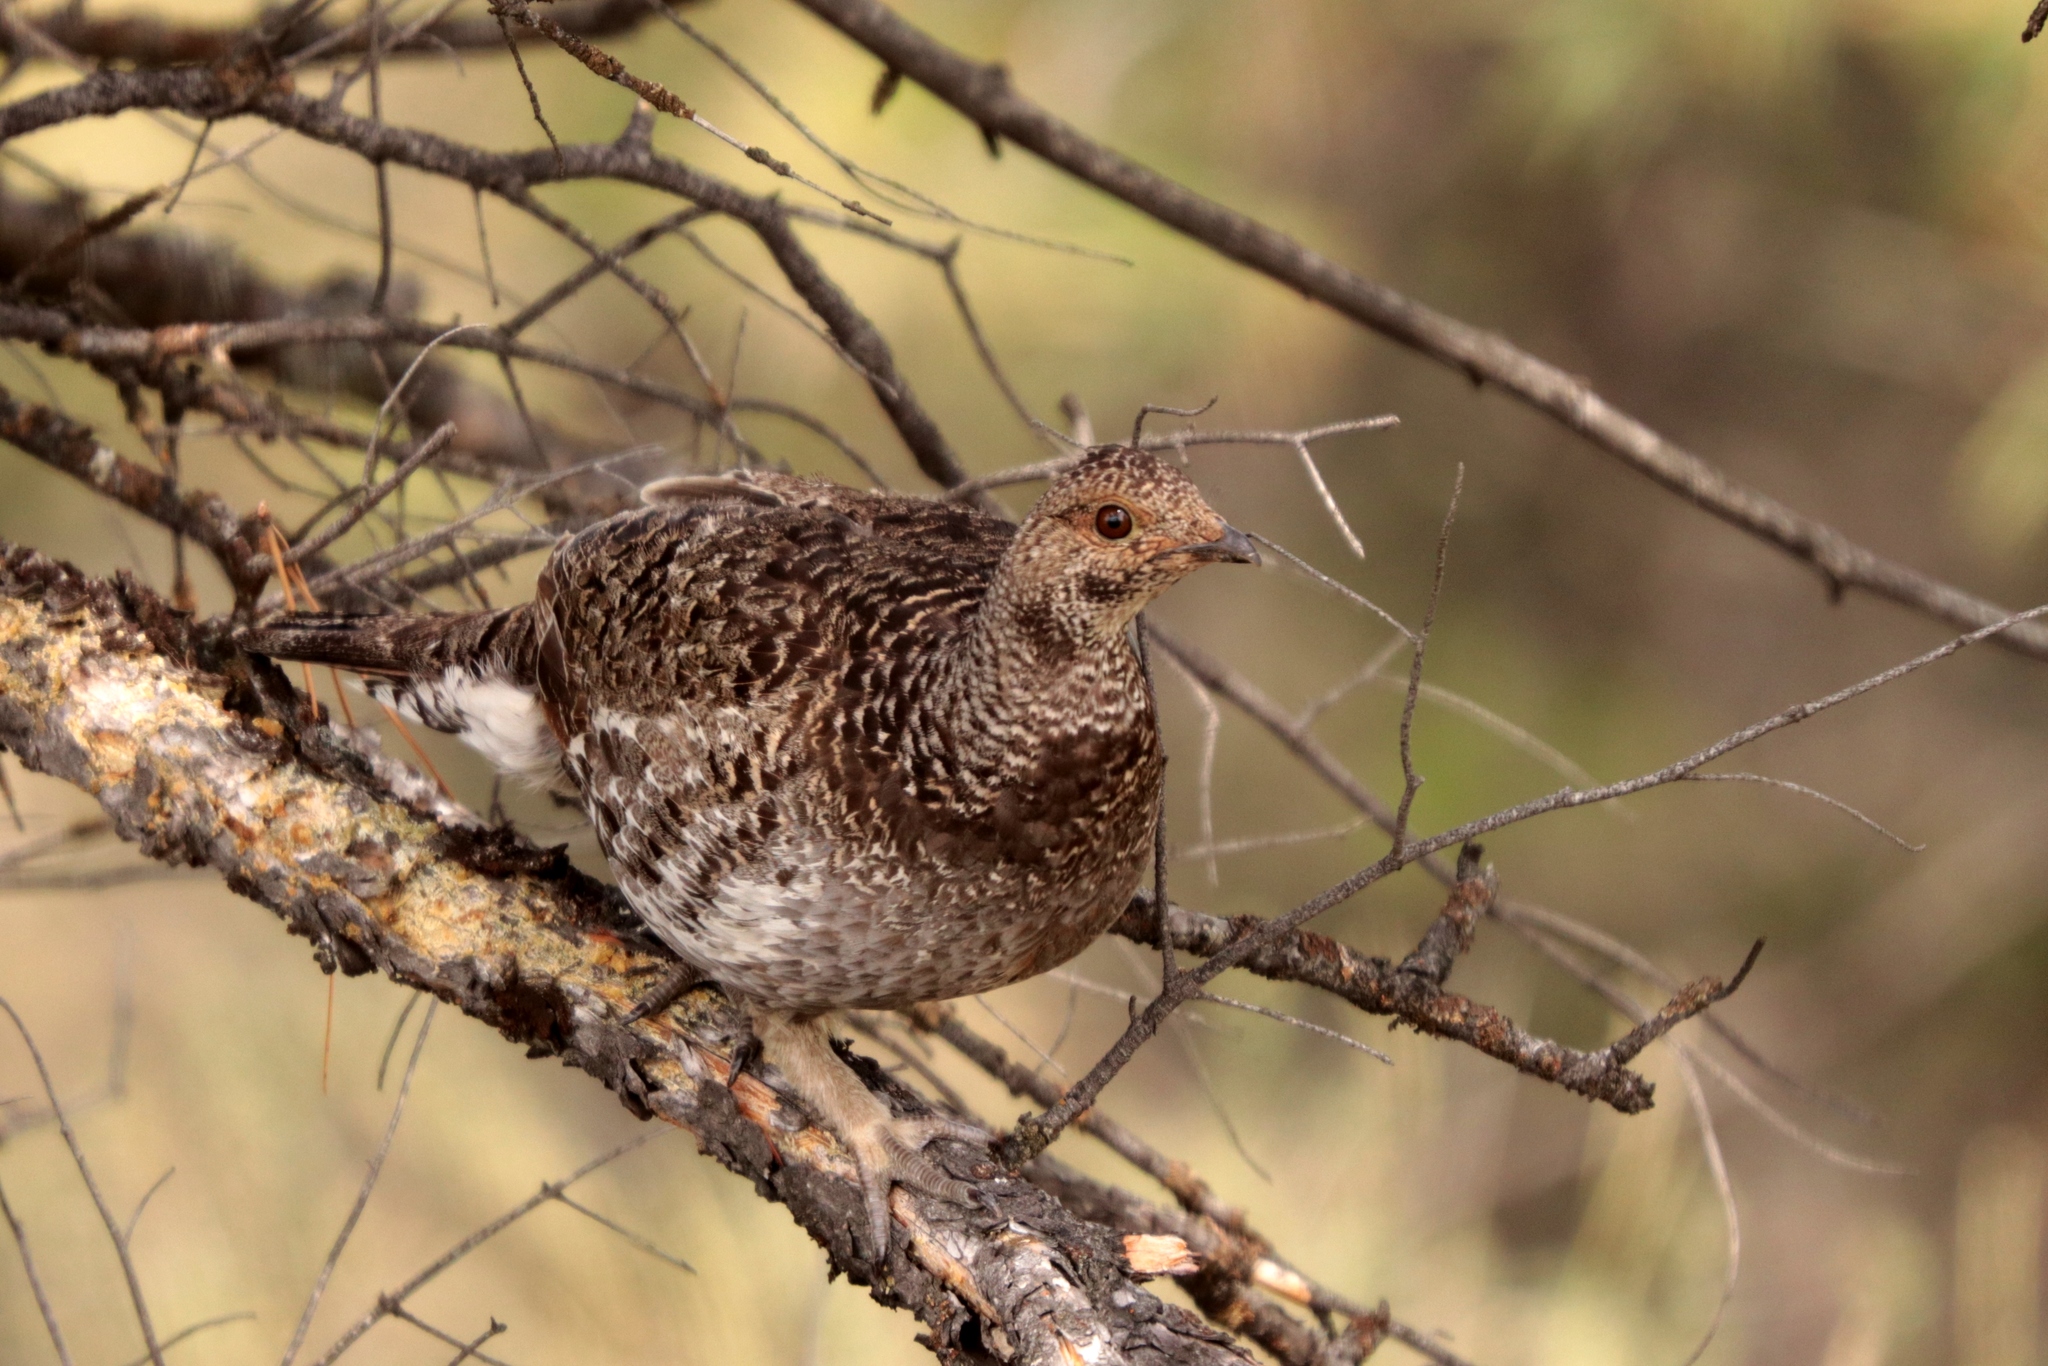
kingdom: Animalia
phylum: Chordata
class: Aves
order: Galliformes
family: Phasianidae
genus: Dendragapus
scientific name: Dendragapus obscurus
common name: Dusky grouse
